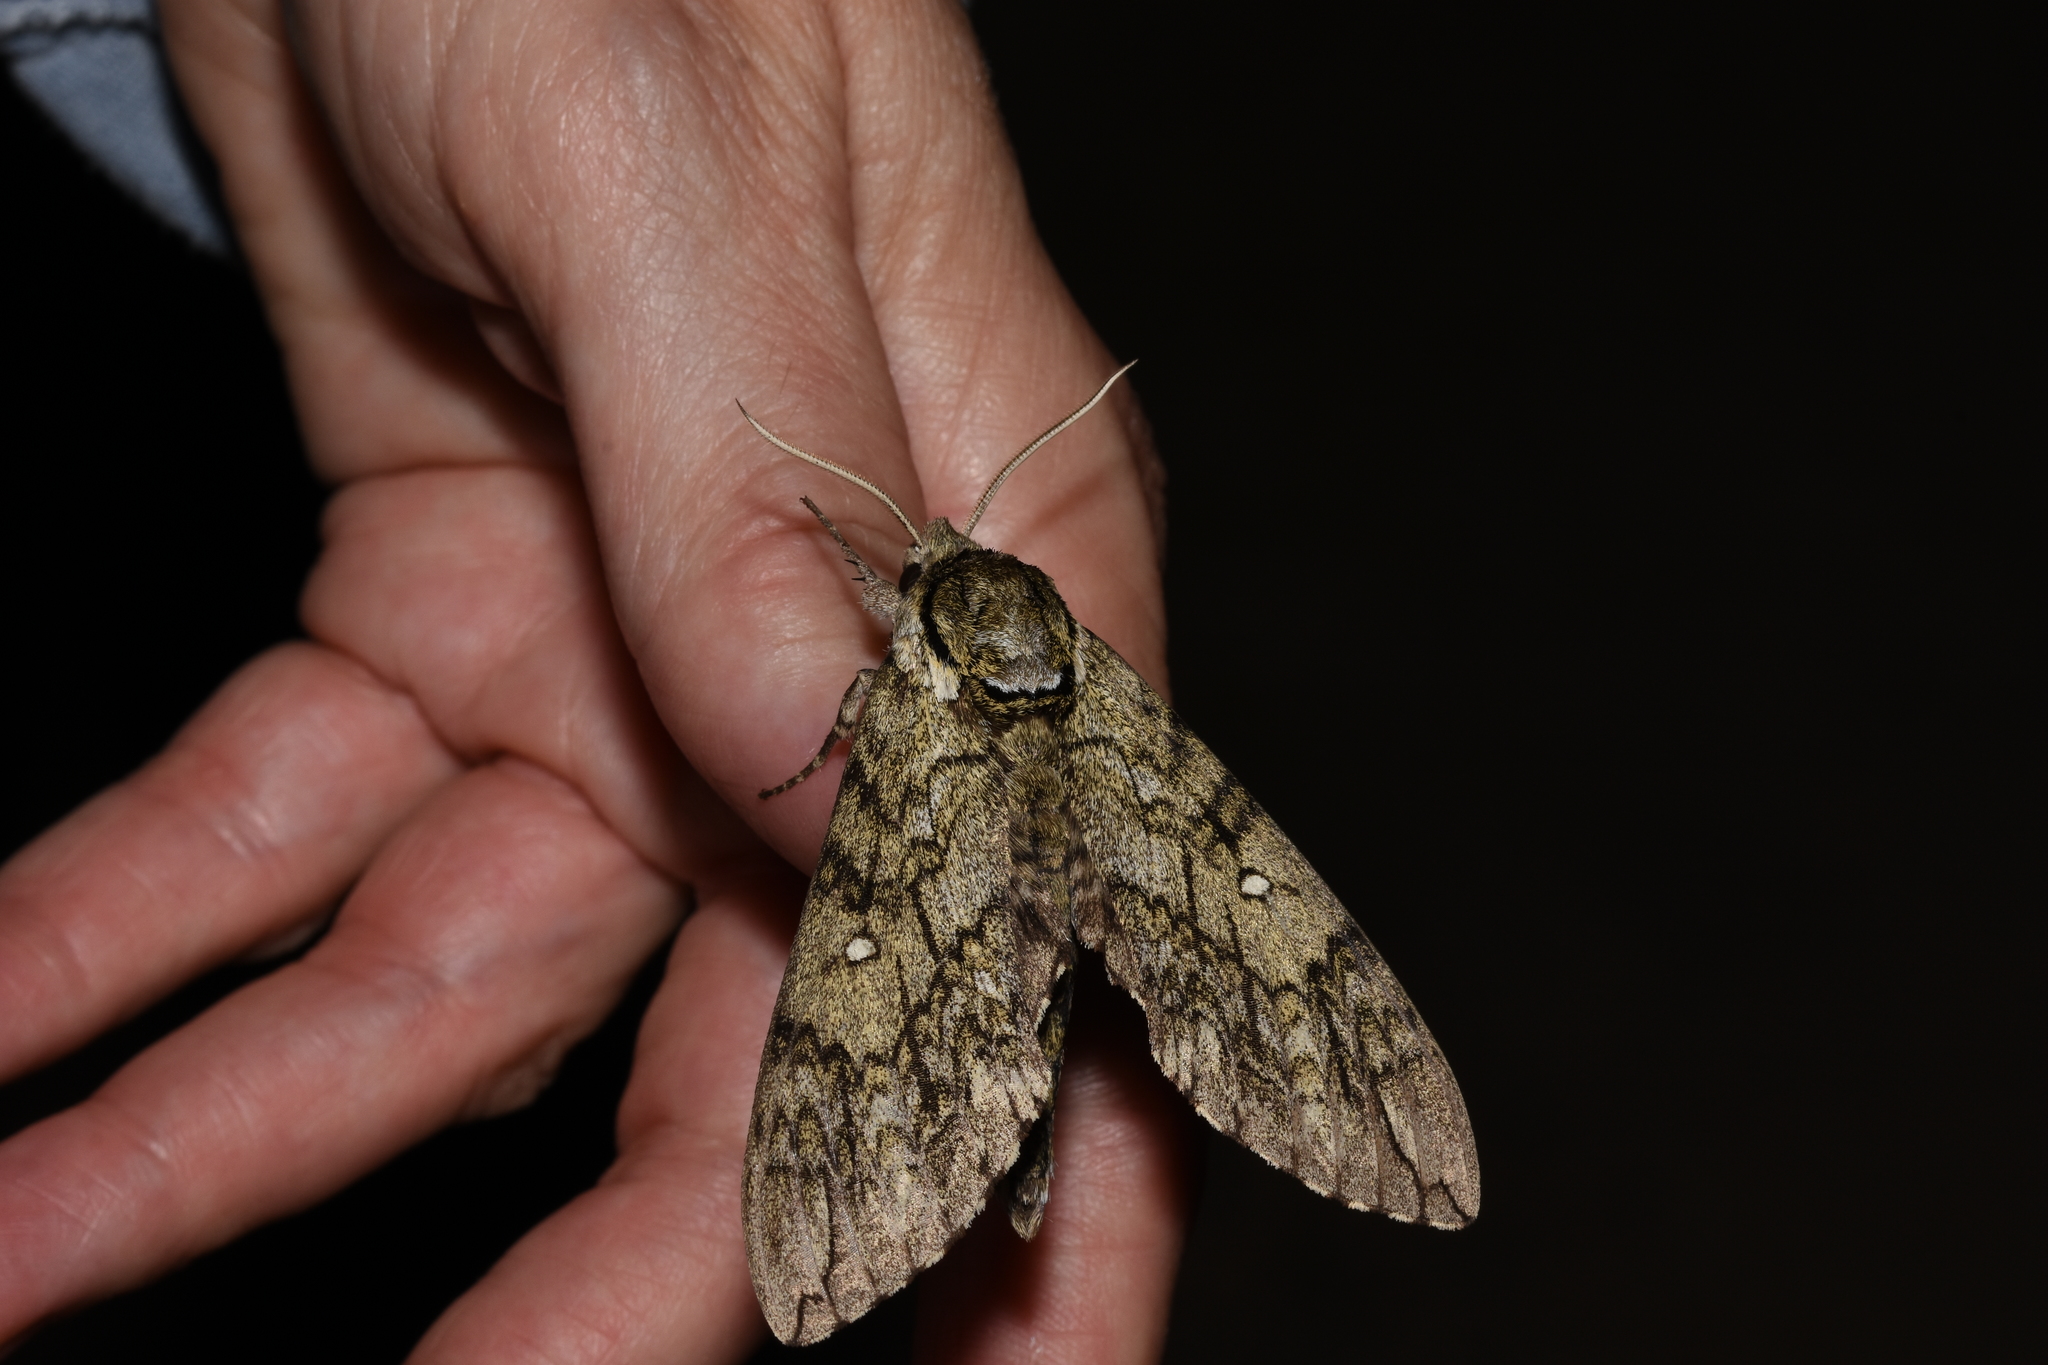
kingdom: Animalia
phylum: Arthropoda
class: Insecta
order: Lepidoptera
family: Sphingidae
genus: Ceratomia
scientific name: Ceratomia undulosa
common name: Waved sphinx
